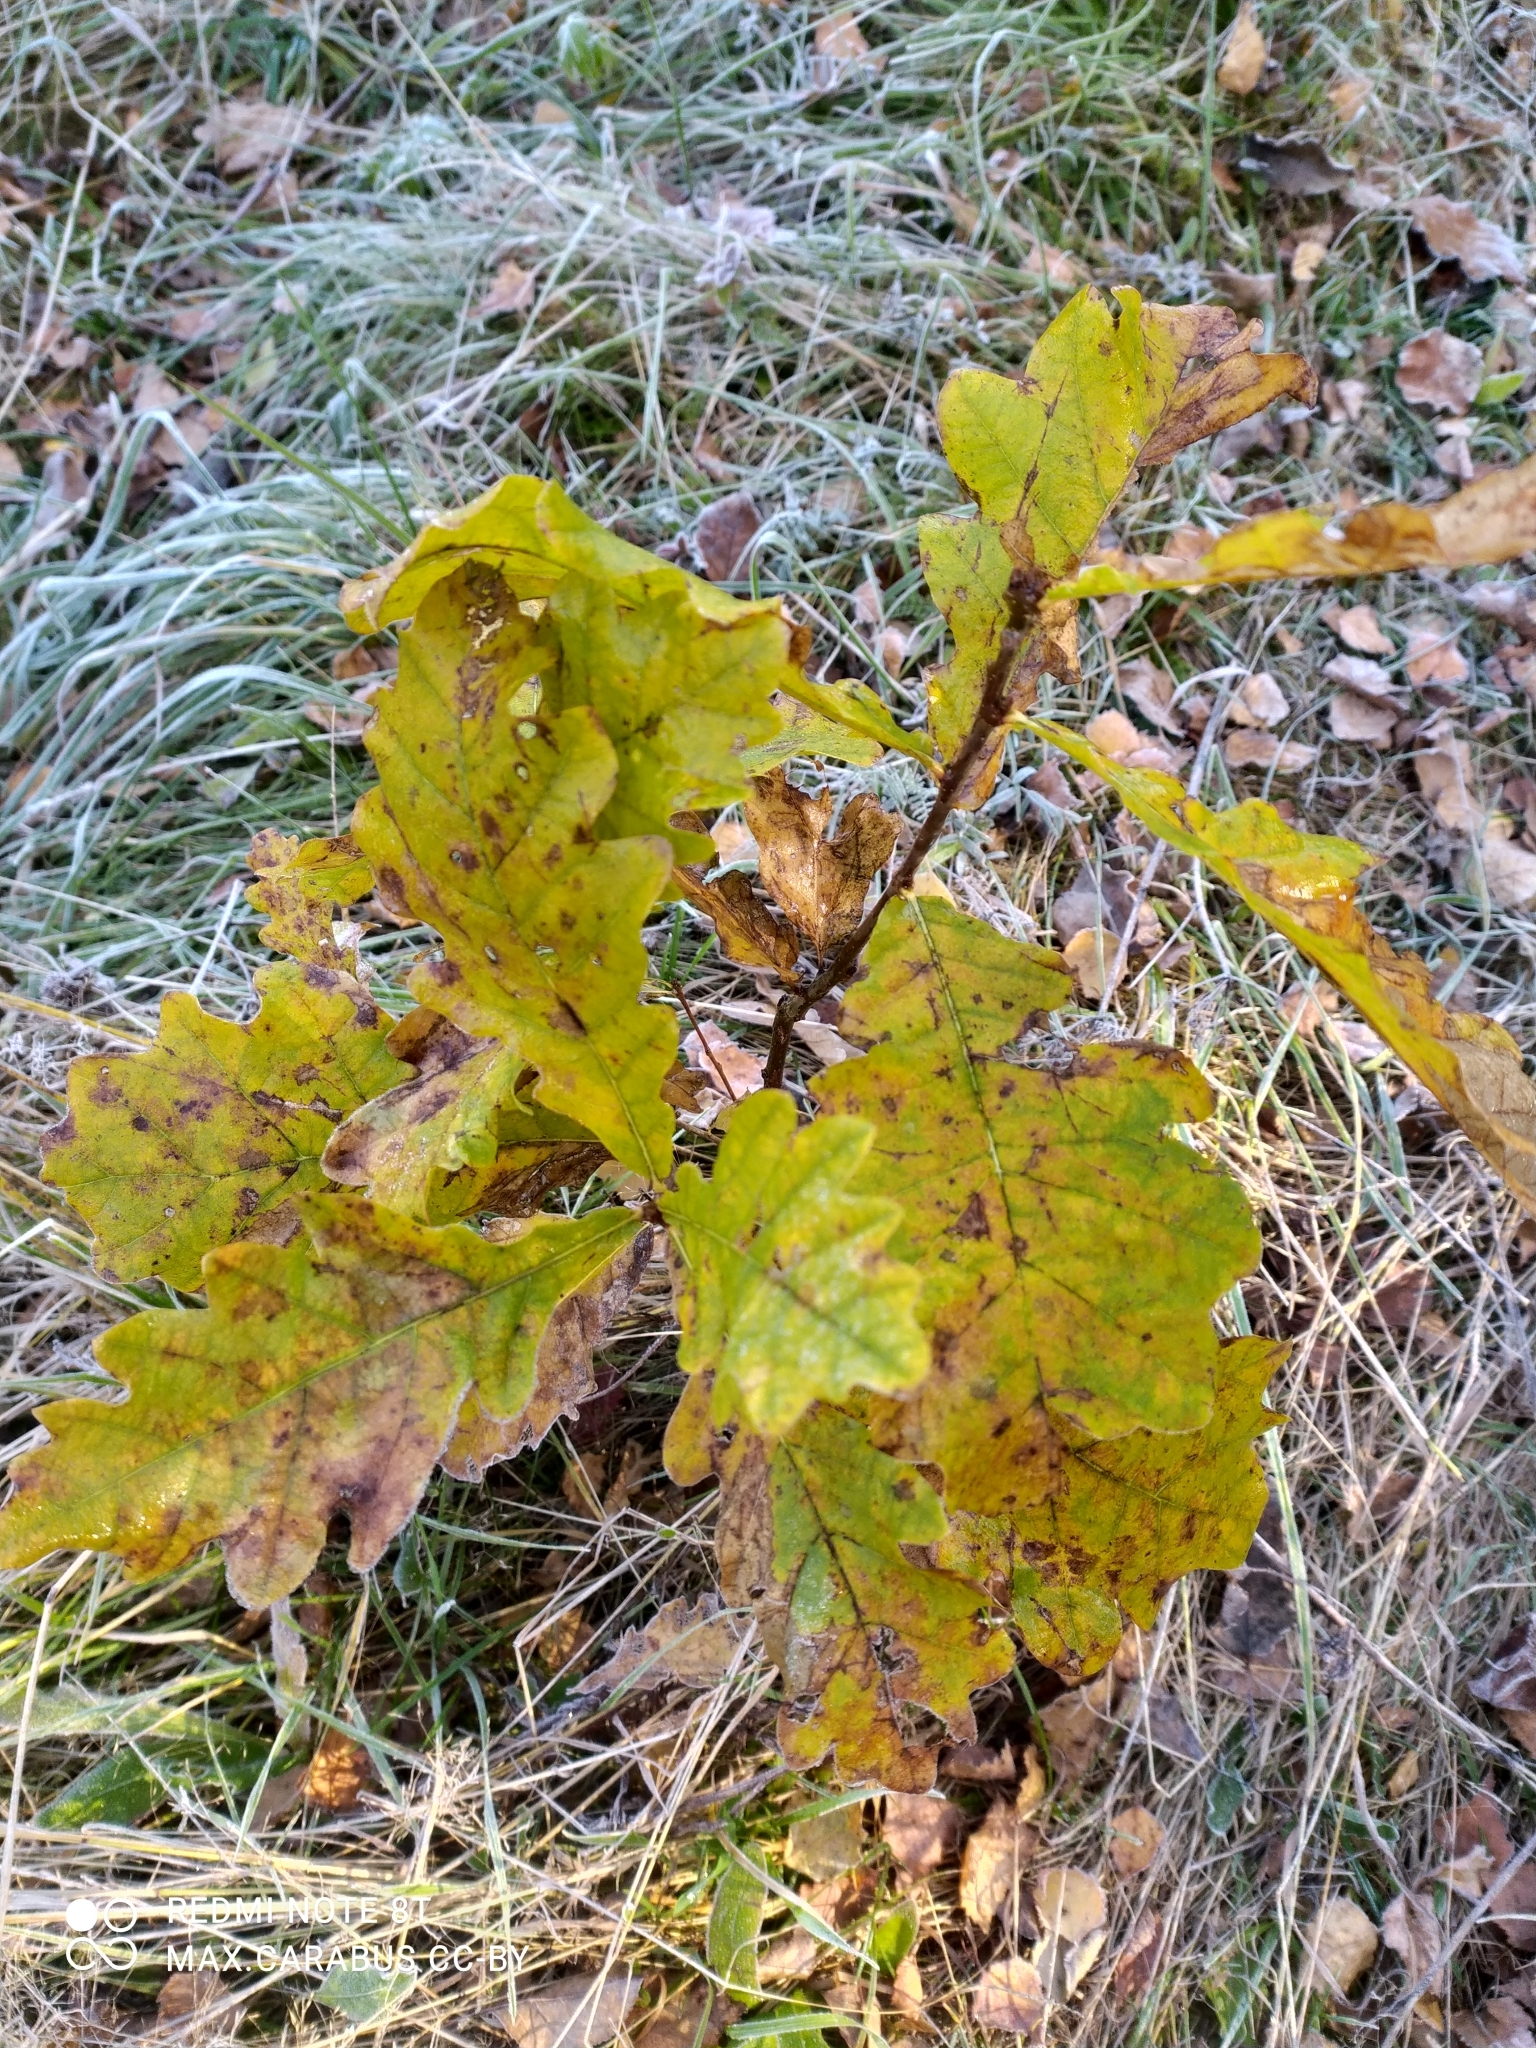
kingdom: Plantae
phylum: Tracheophyta
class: Magnoliopsida
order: Fagales
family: Fagaceae
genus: Quercus
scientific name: Quercus robur
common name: Pedunculate oak
